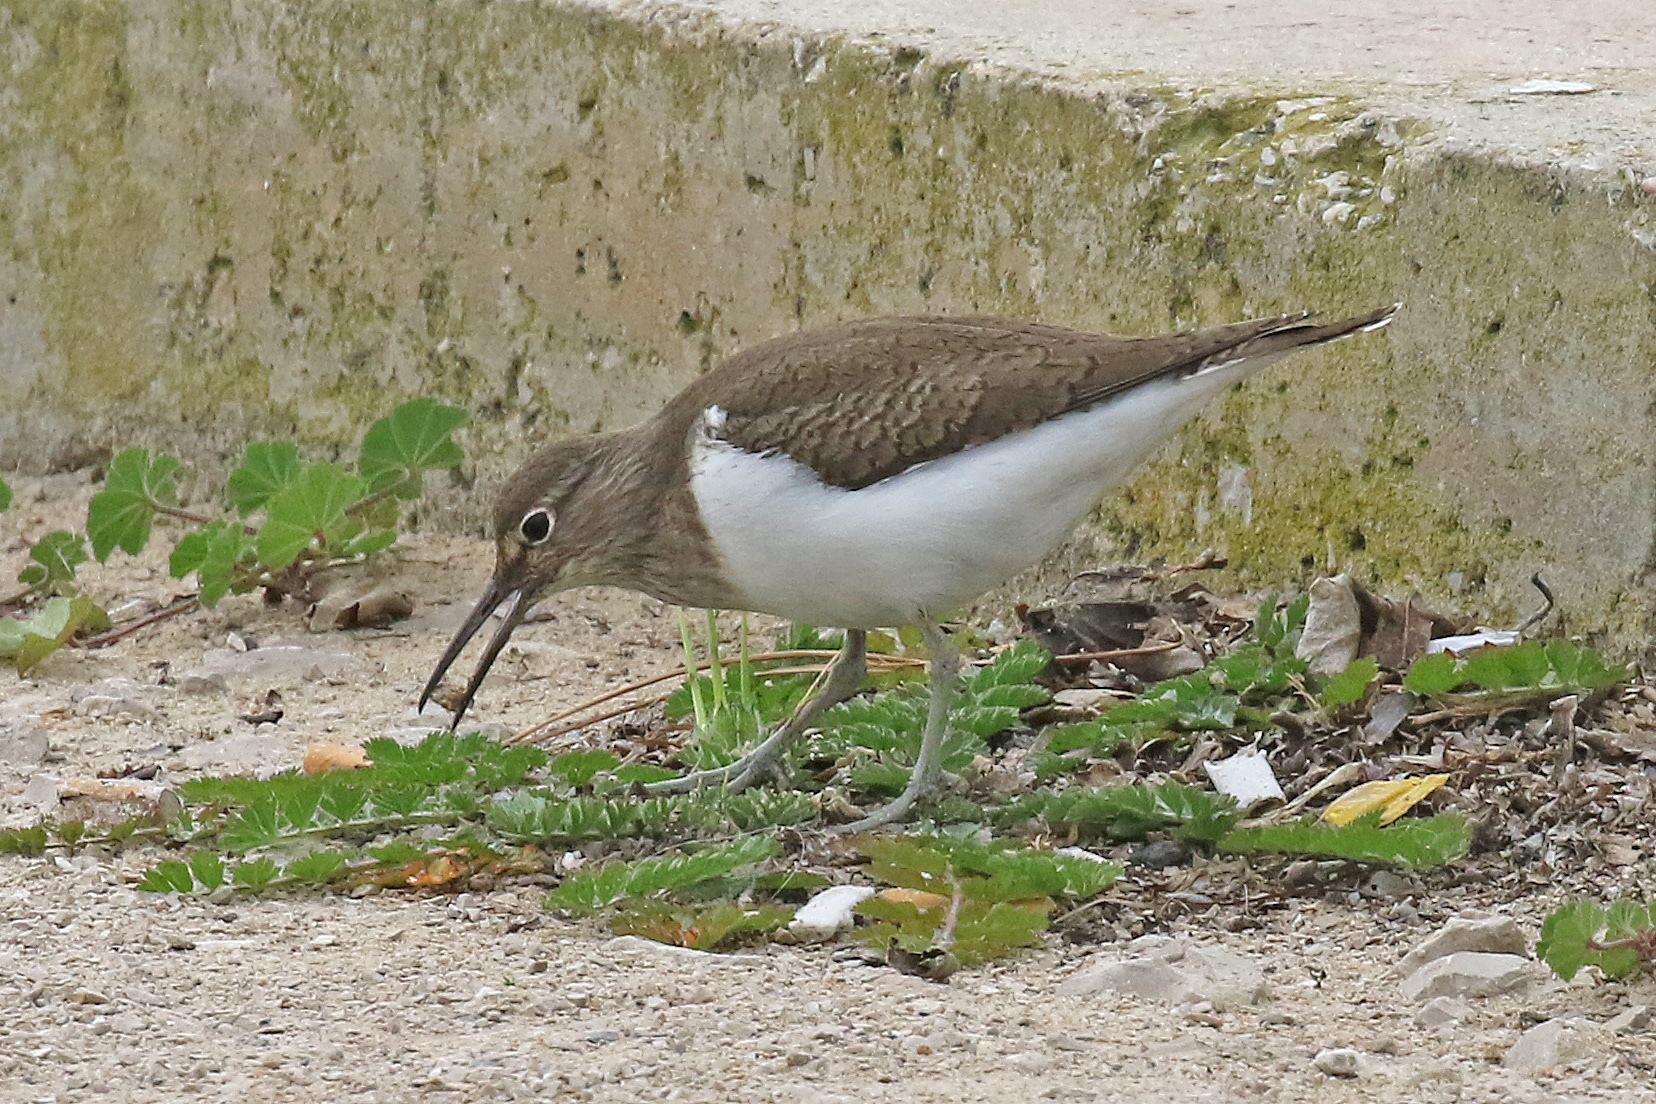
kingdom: Animalia
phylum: Chordata
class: Aves
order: Charadriiformes
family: Scolopacidae
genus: Actitis
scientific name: Actitis hypoleucos
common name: Common sandpiper
